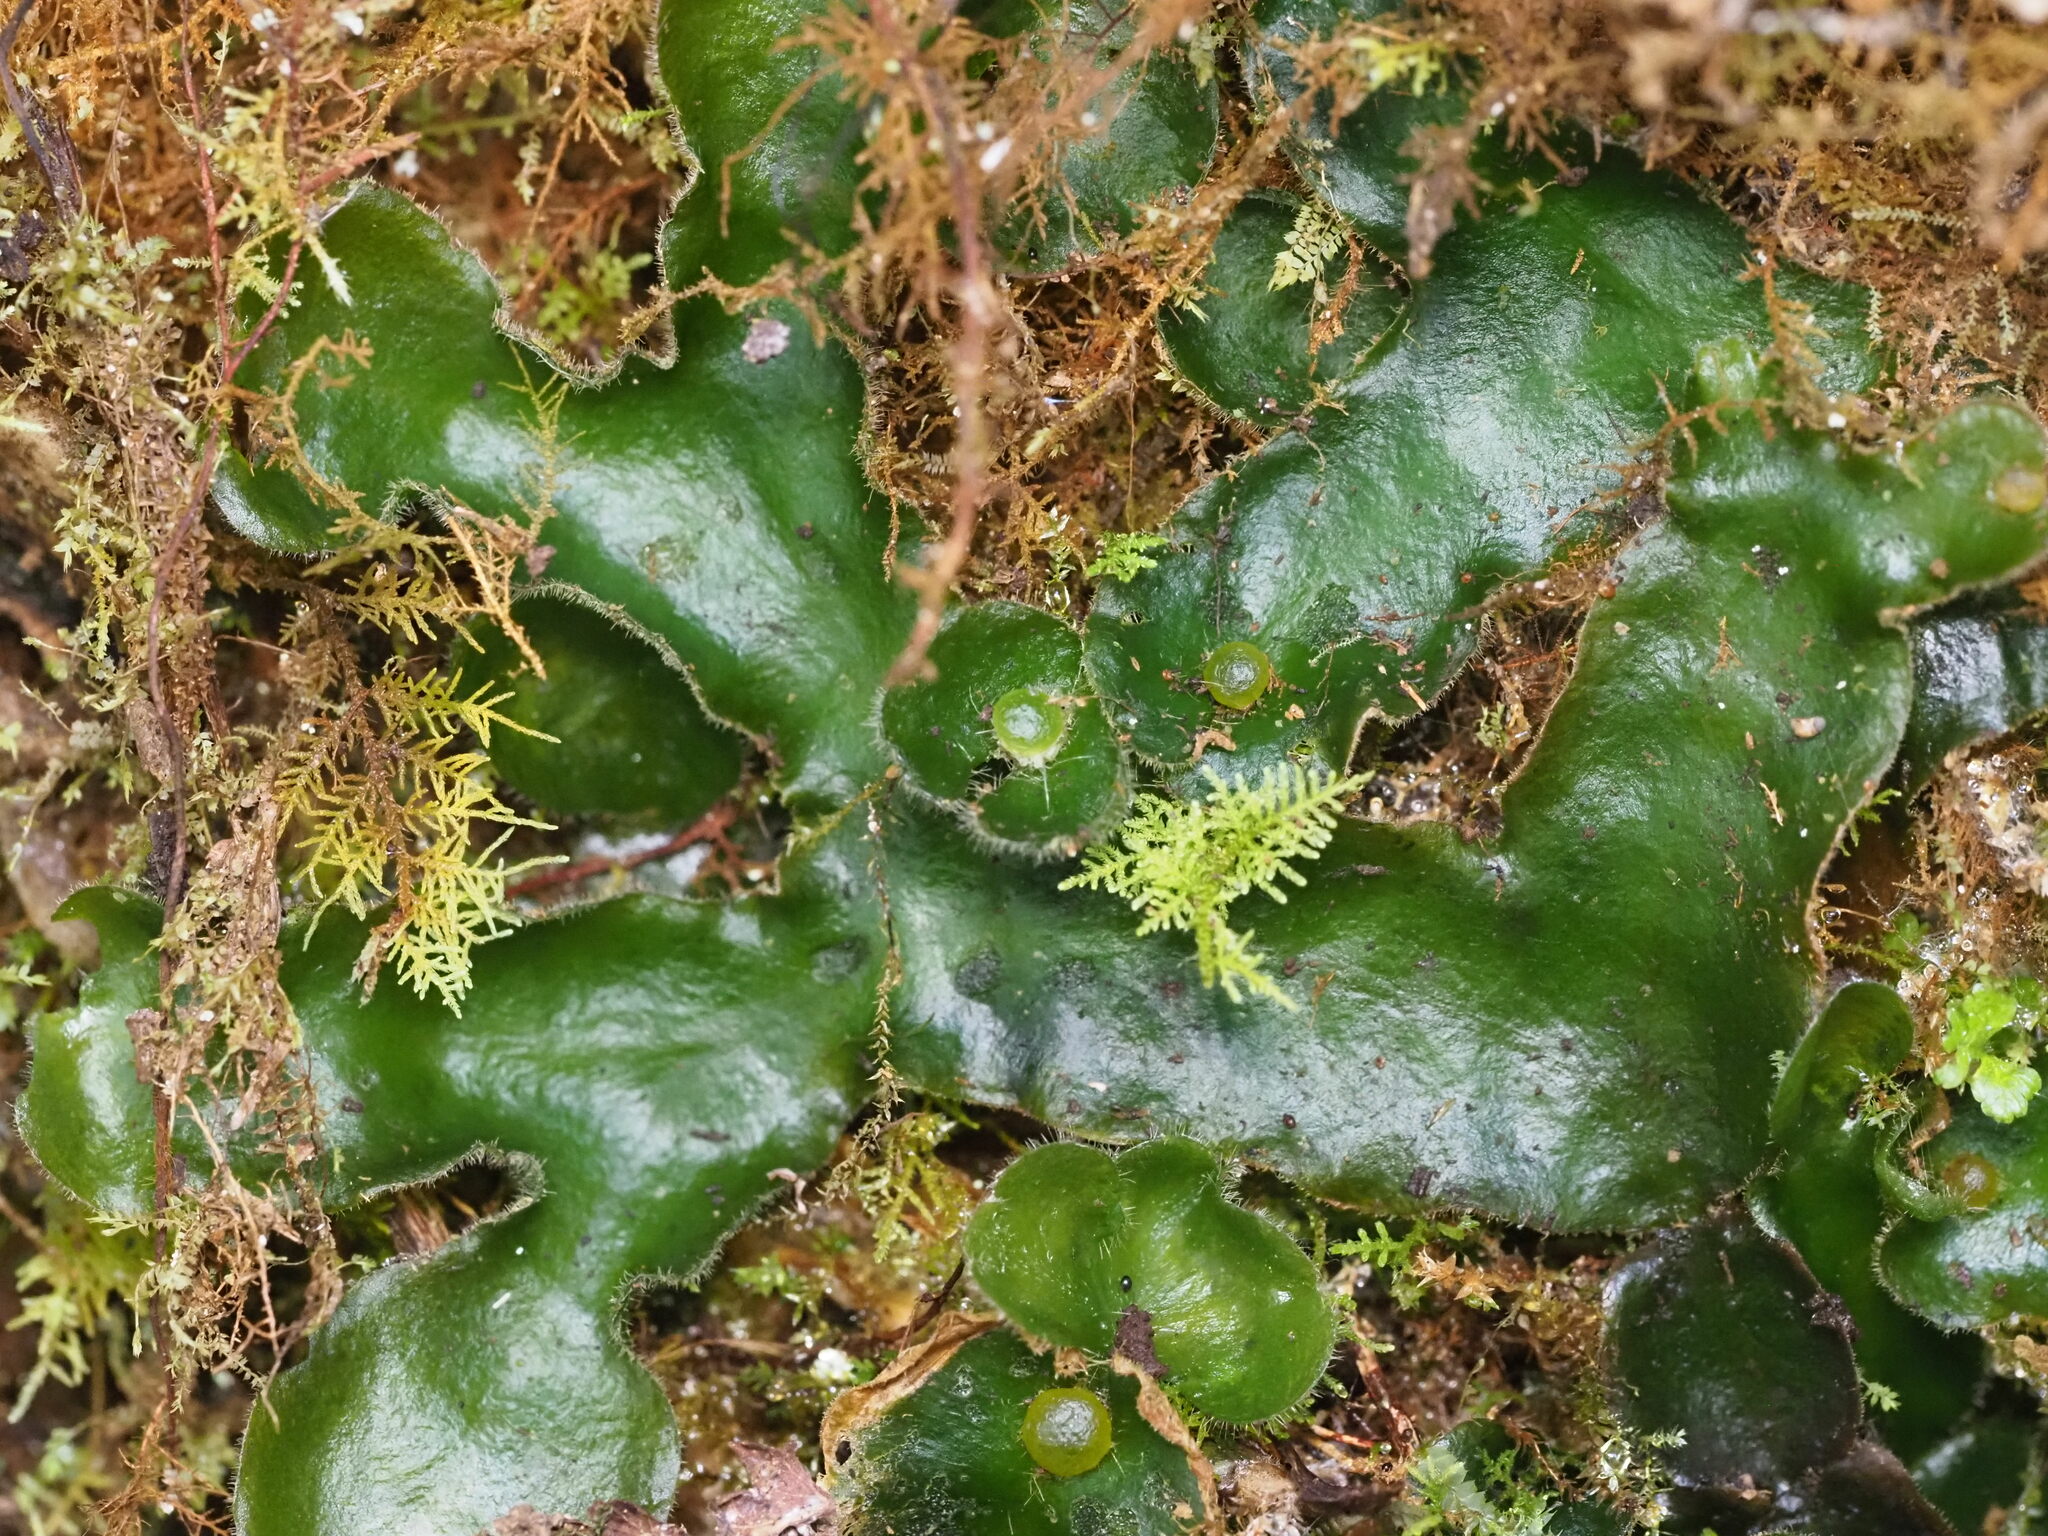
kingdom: Plantae
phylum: Marchantiophyta
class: Marchantiopsida
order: Marchantiales
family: Dumortieraceae
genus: Dumortiera
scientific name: Dumortiera hirsuta
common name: Dumortier's liverwort
